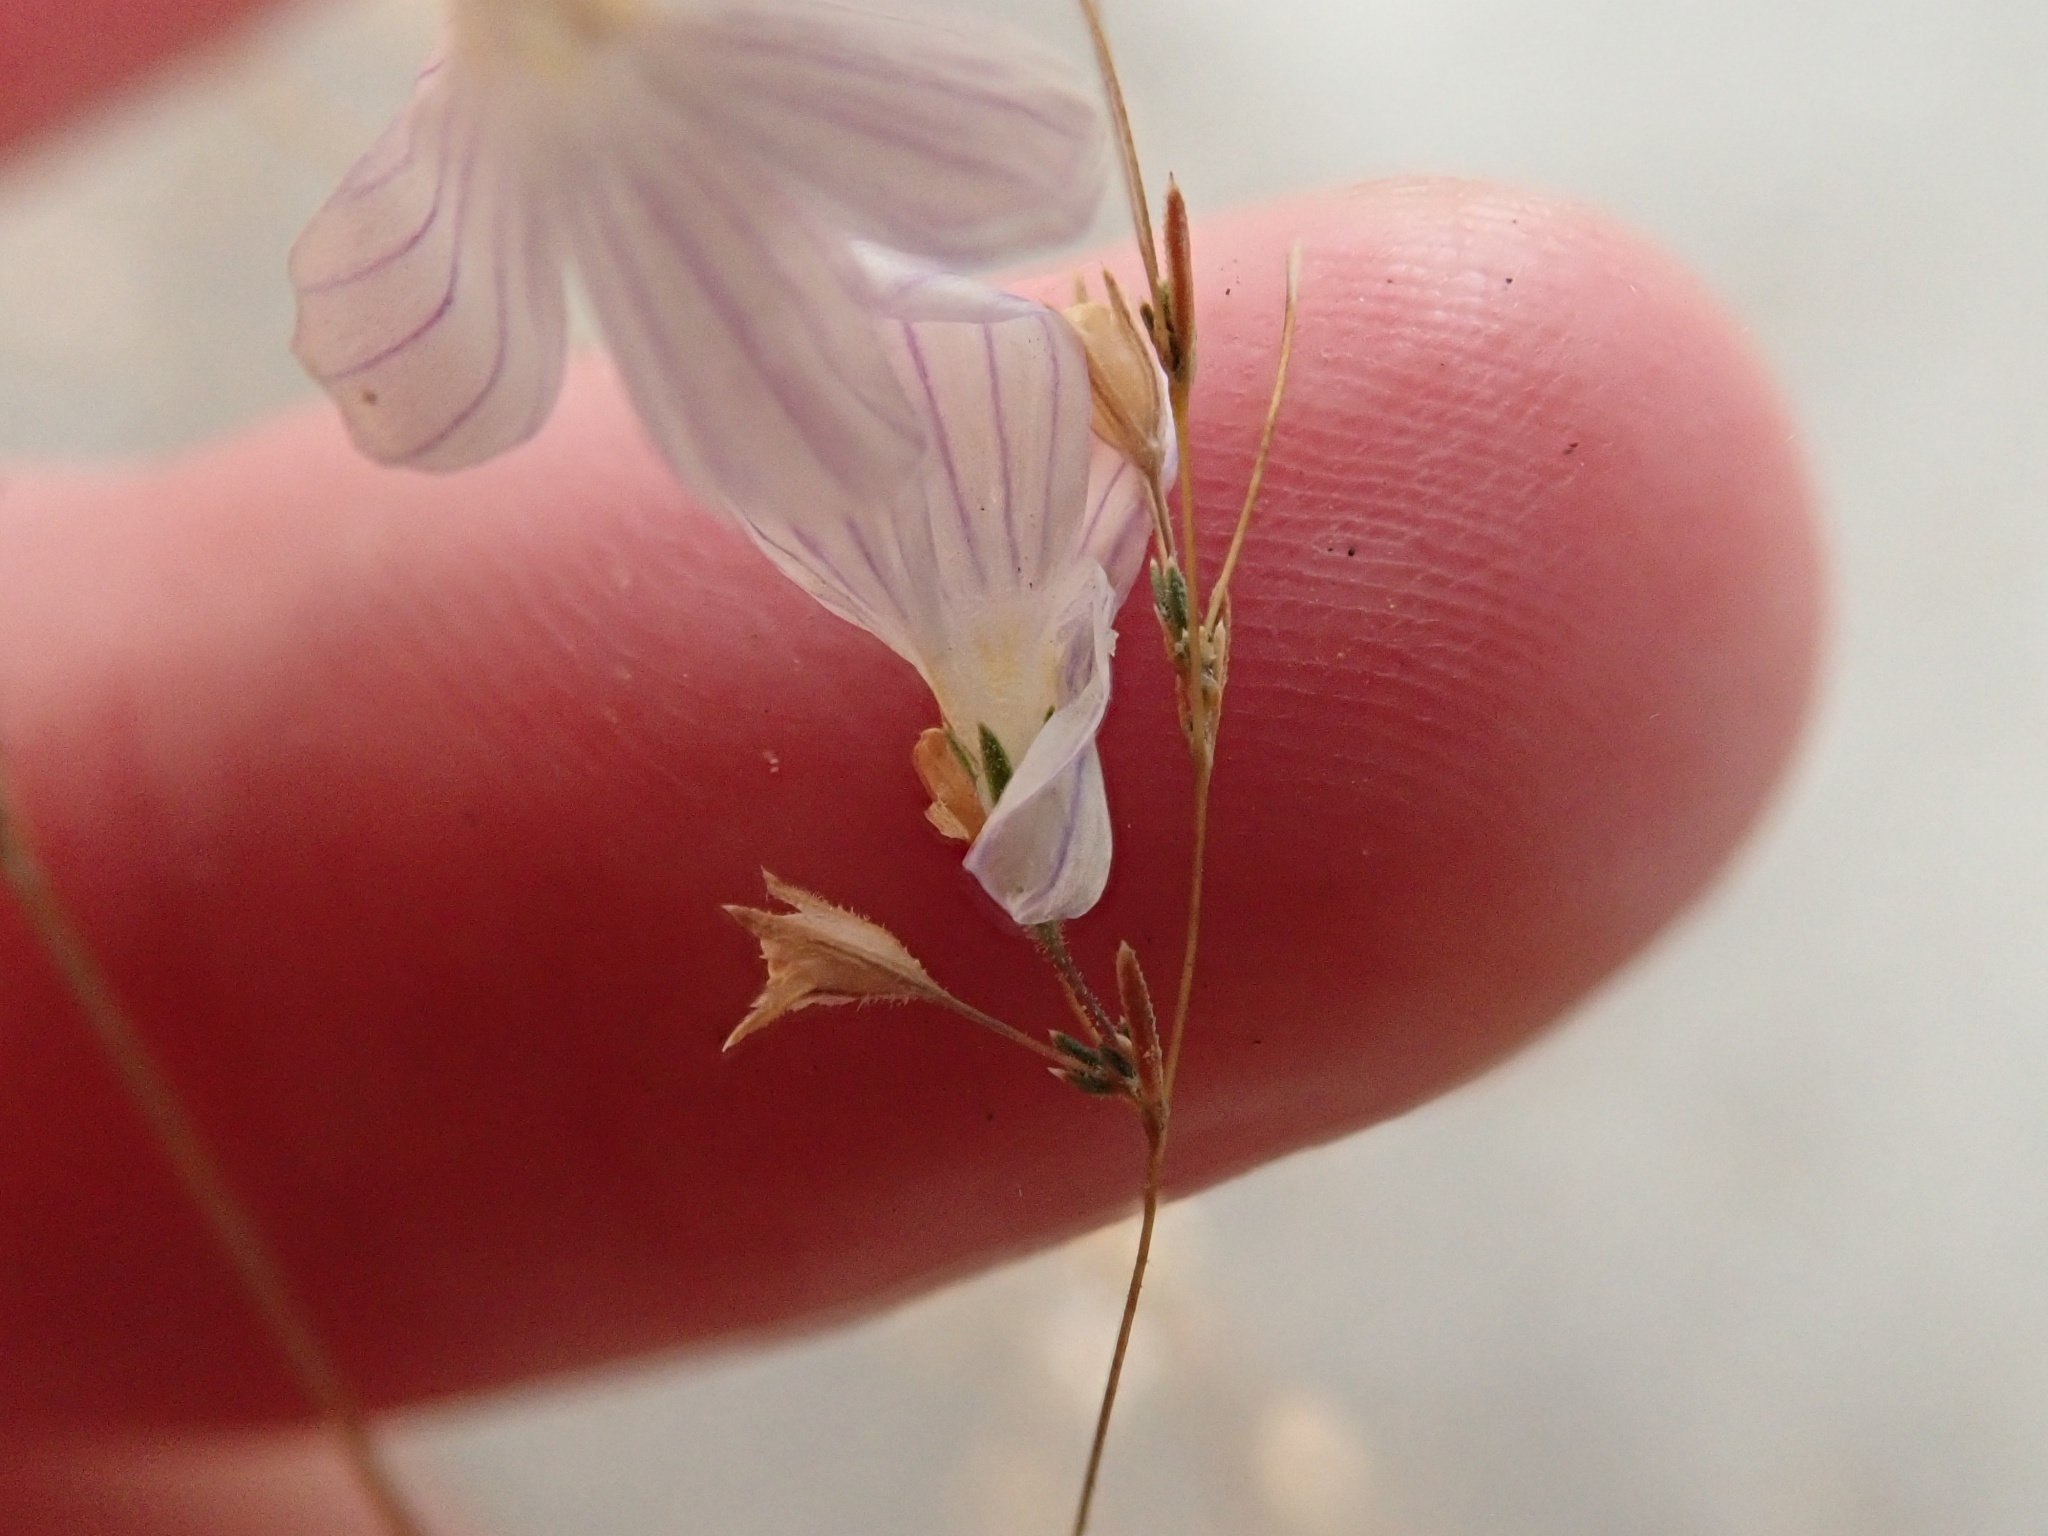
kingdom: Plantae
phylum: Tracheophyta
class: Magnoliopsida
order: Ericales
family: Polemoniaceae
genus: Leptosiphon
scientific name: Leptosiphon liniflorus
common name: Narrowflower flaxflower
